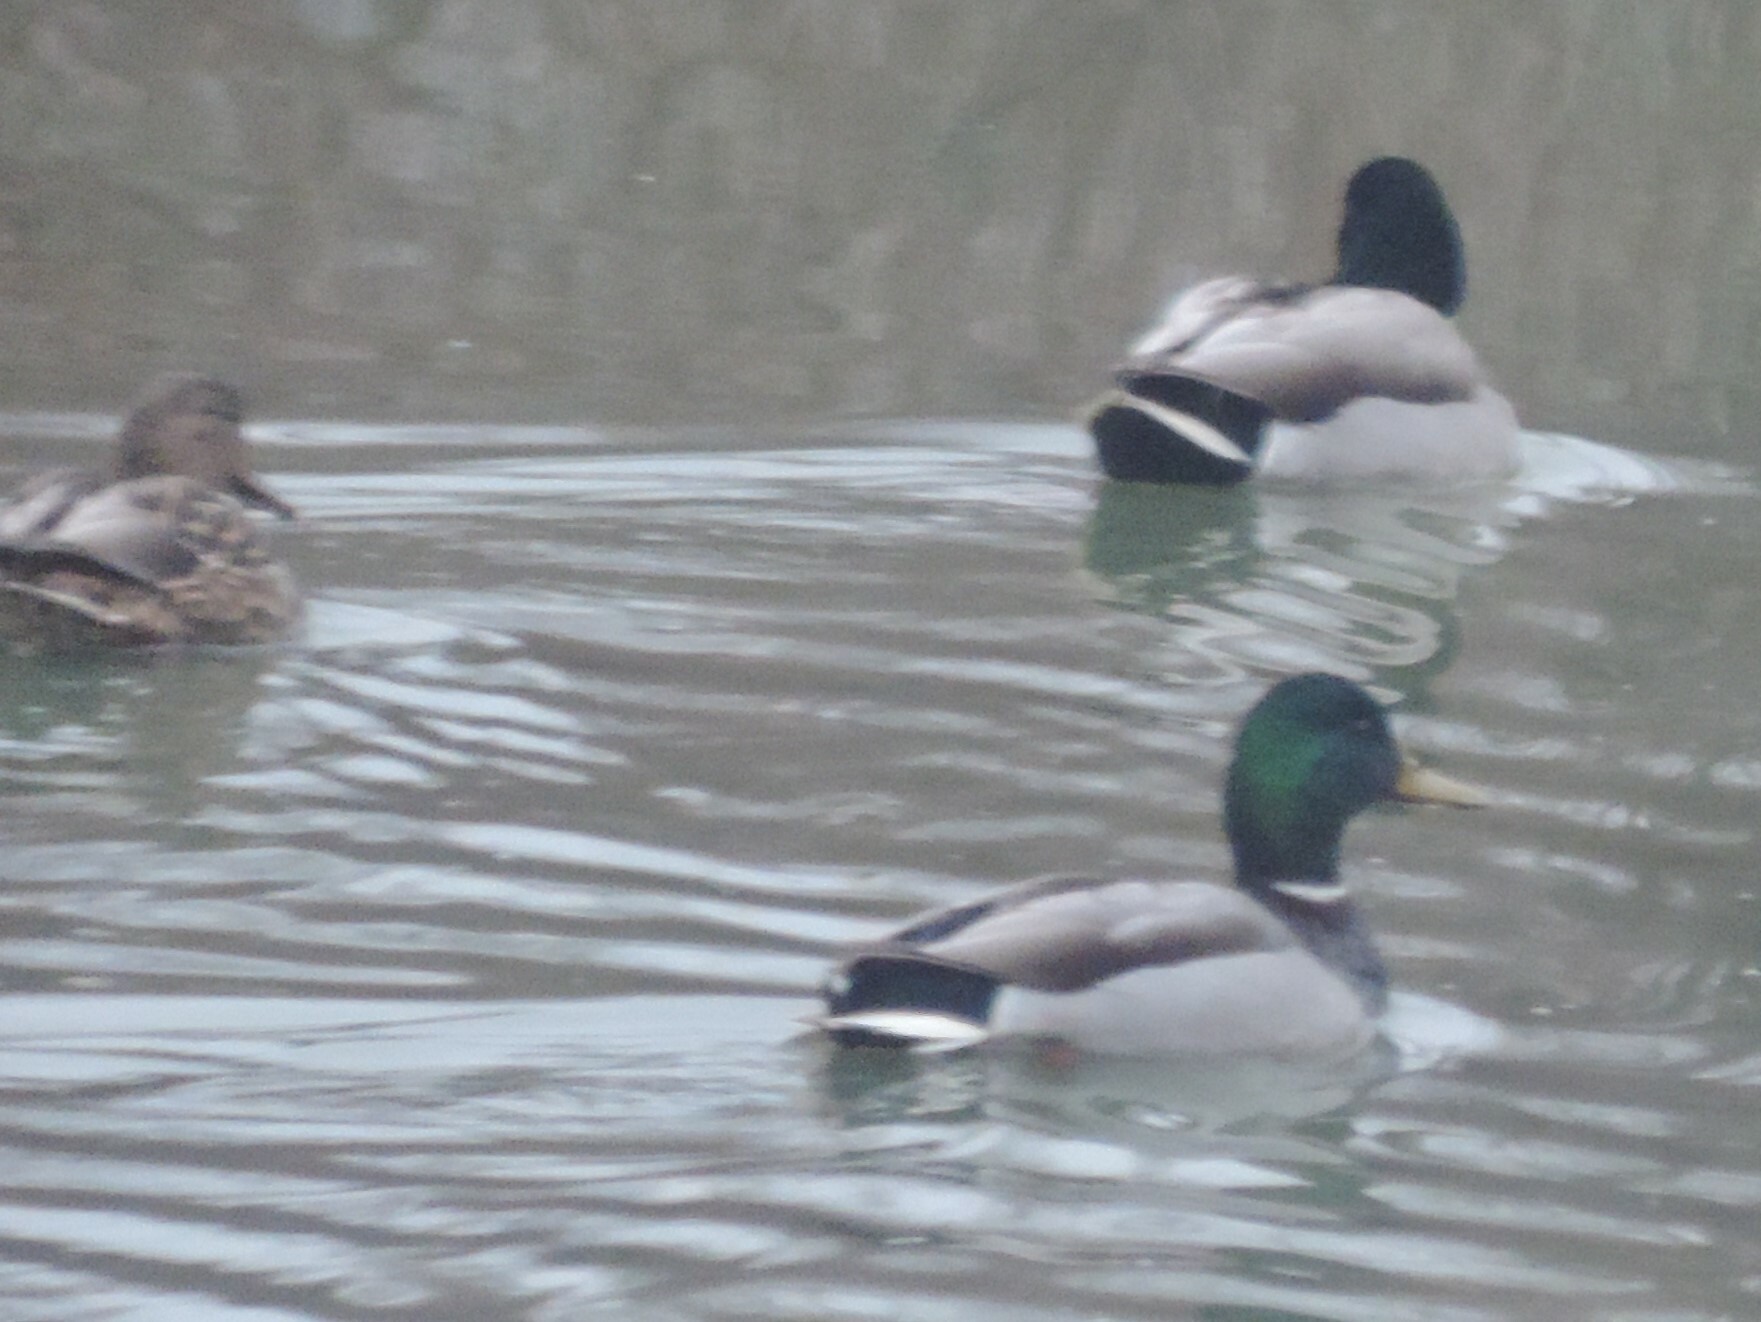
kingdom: Animalia
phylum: Chordata
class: Aves
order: Anseriformes
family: Anatidae
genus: Anas
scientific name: Anas platyrhynchos
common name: Mallard
